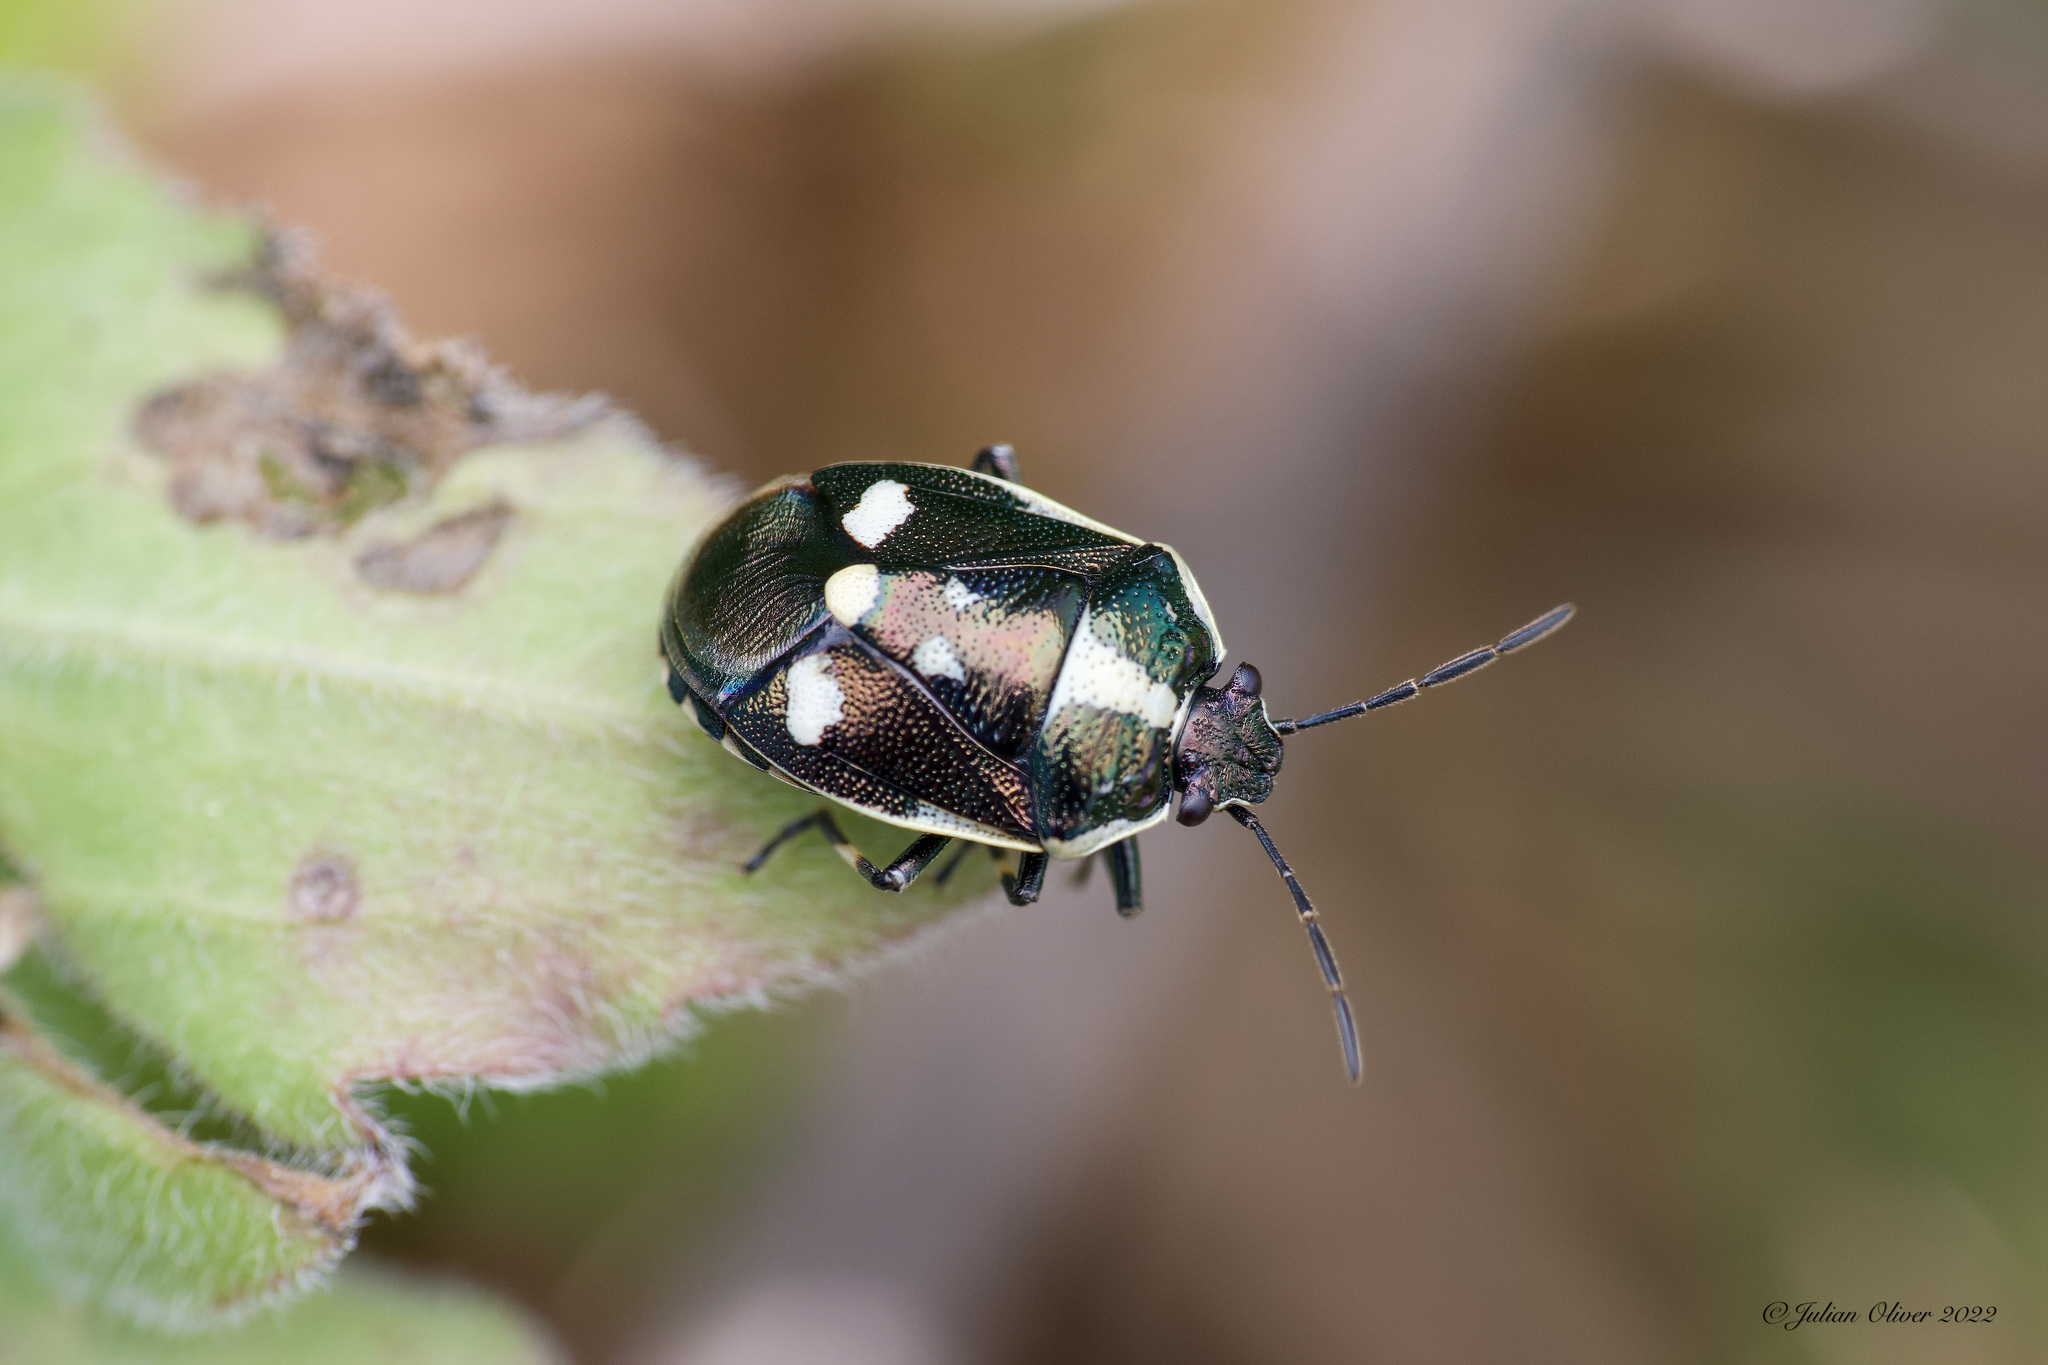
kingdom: Animalia
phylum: Arthropoda
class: Insecta
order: Hemiptera
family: Pentatomidae
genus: Eurydema
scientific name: Eurydema oleracea
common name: Cabbage bug
